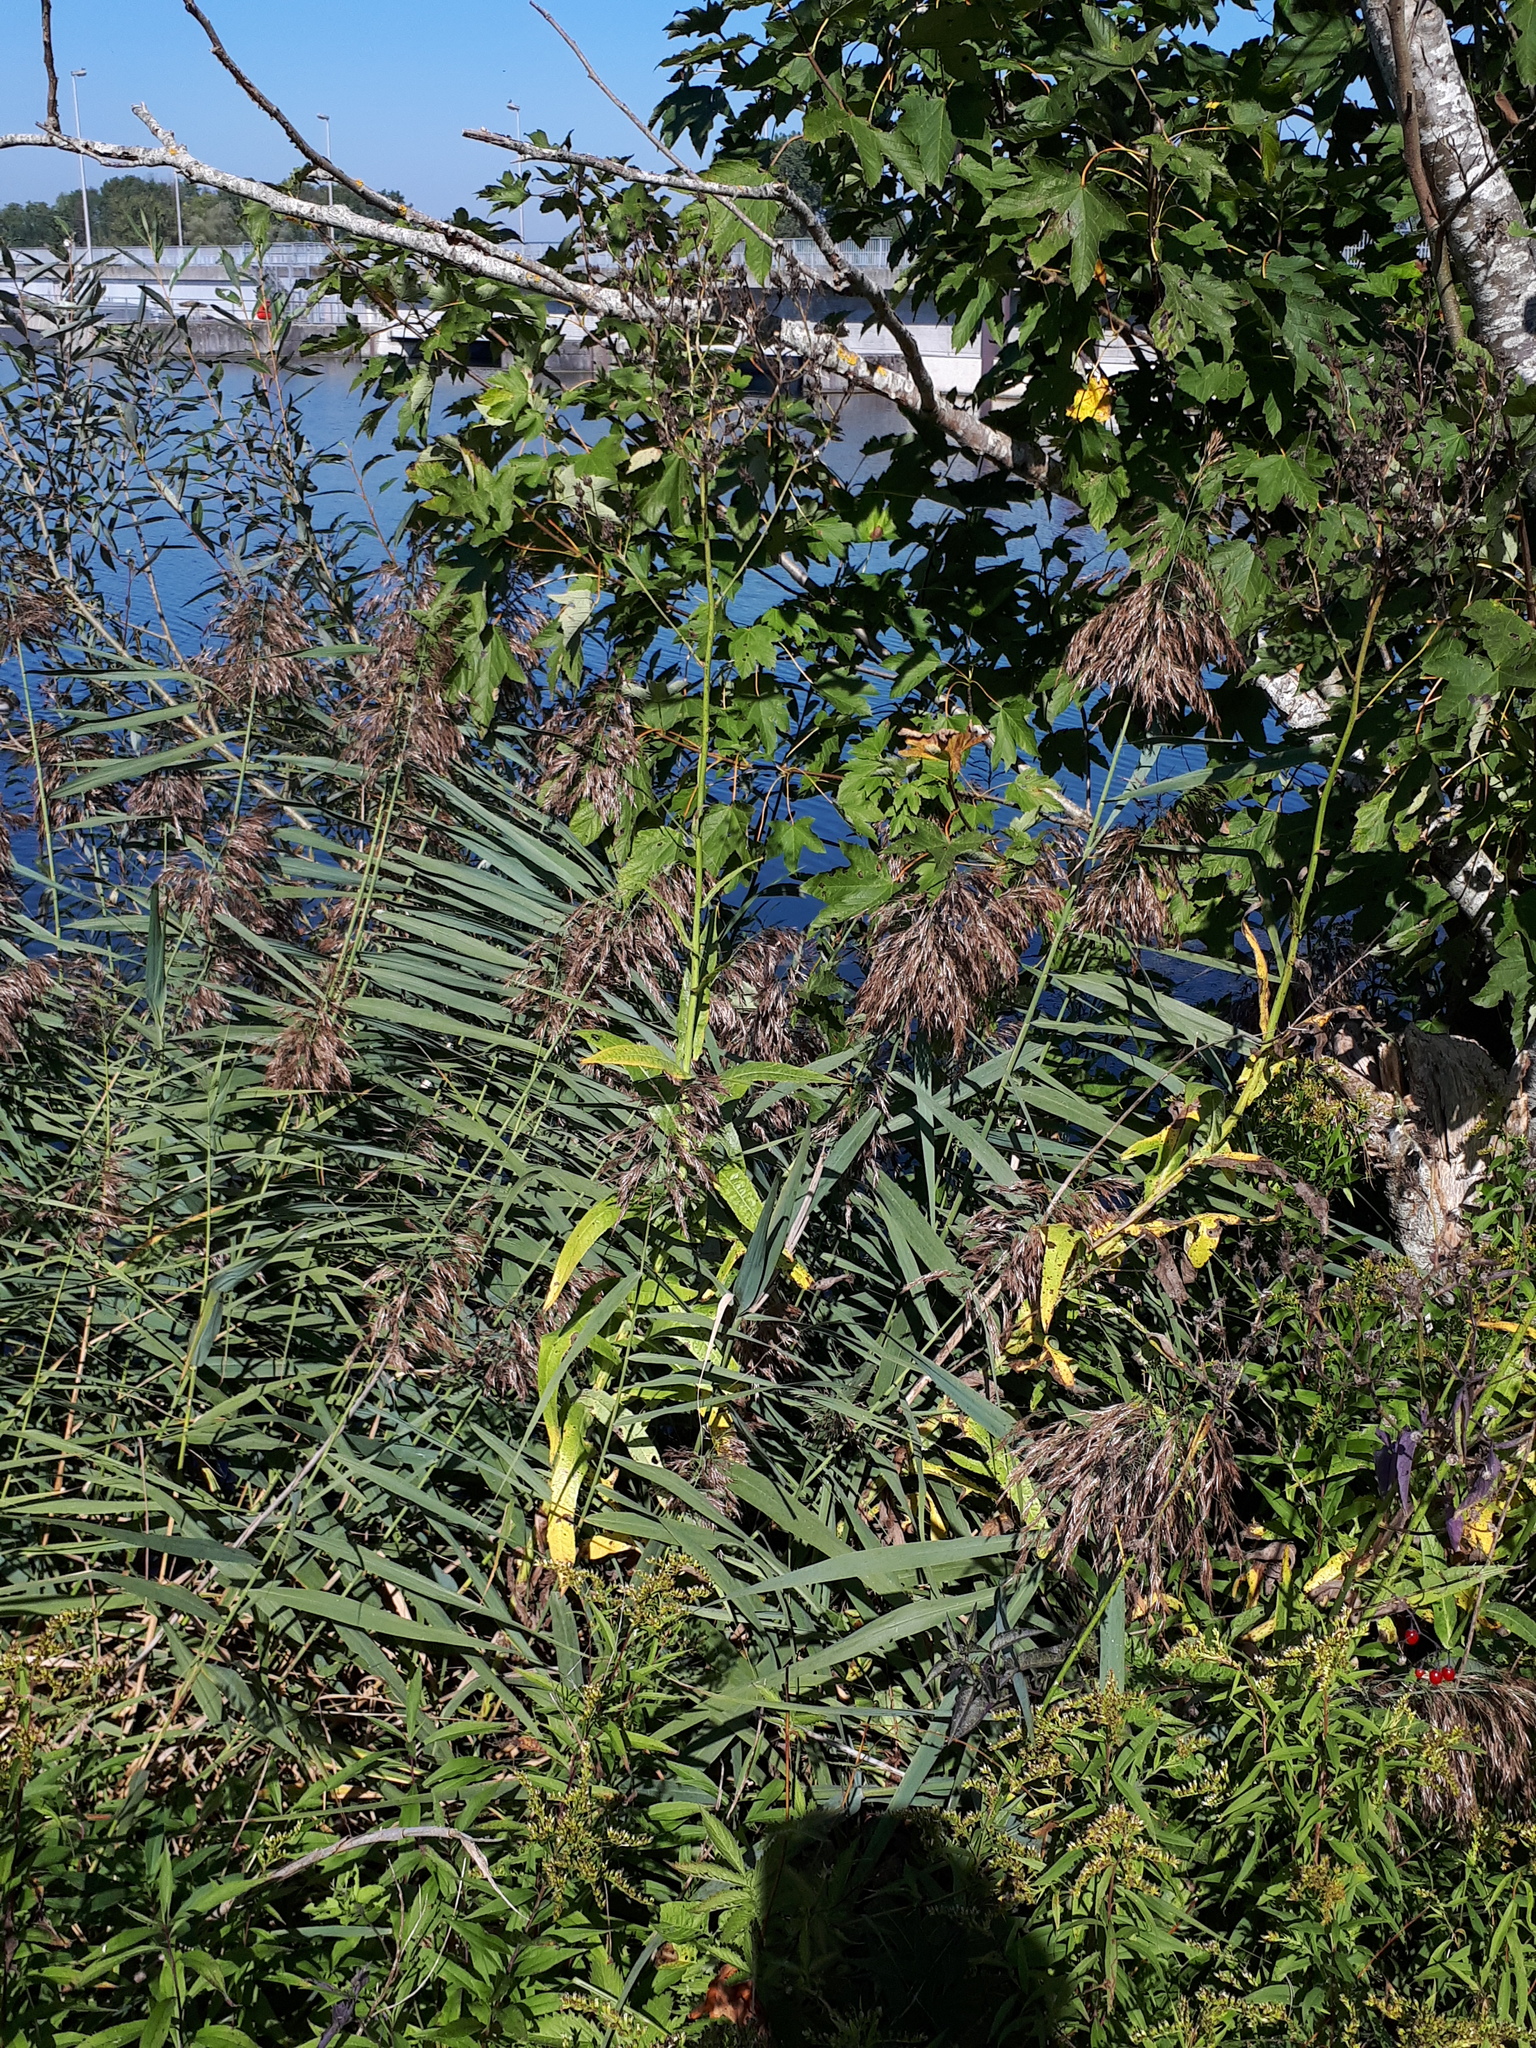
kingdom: Plantae
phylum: Tracheophyta
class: Magnoliopsida
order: Asterales
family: Asteraceae
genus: Sonchus
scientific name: Sonchus palustris
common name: Marsh sow-thistle
